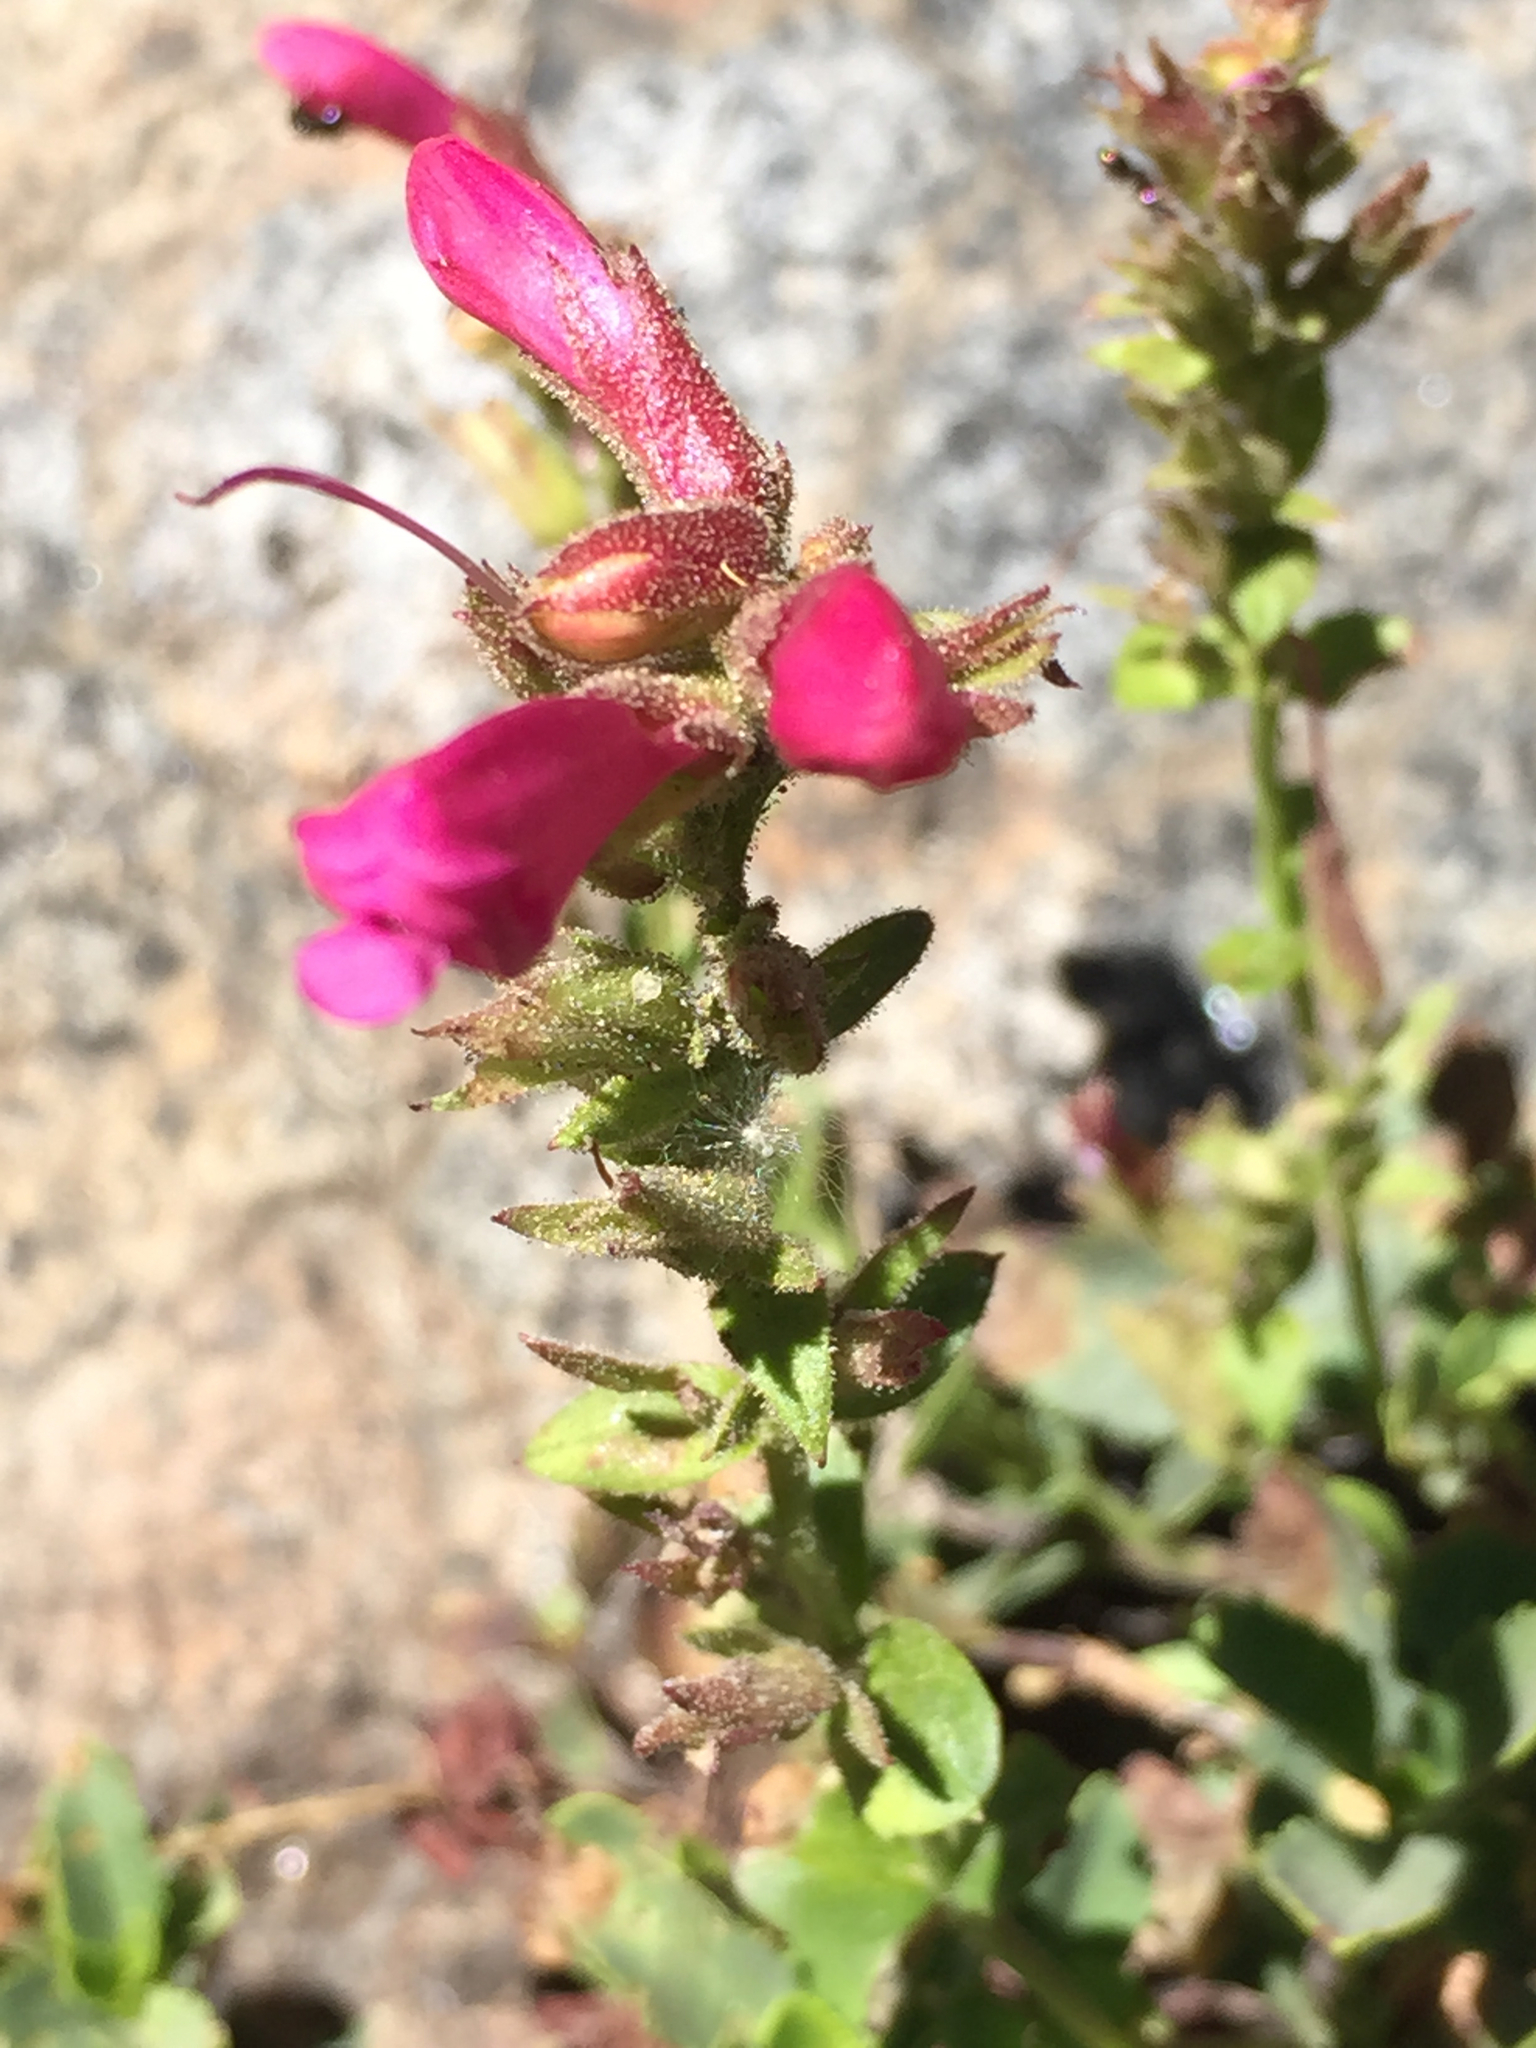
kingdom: Plantae
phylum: Tracheophyta
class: Magnoliopsida
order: Lamiales
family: Plantaginaceae
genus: Penstemon
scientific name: Penstemon newberryi
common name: Mountain-pride
